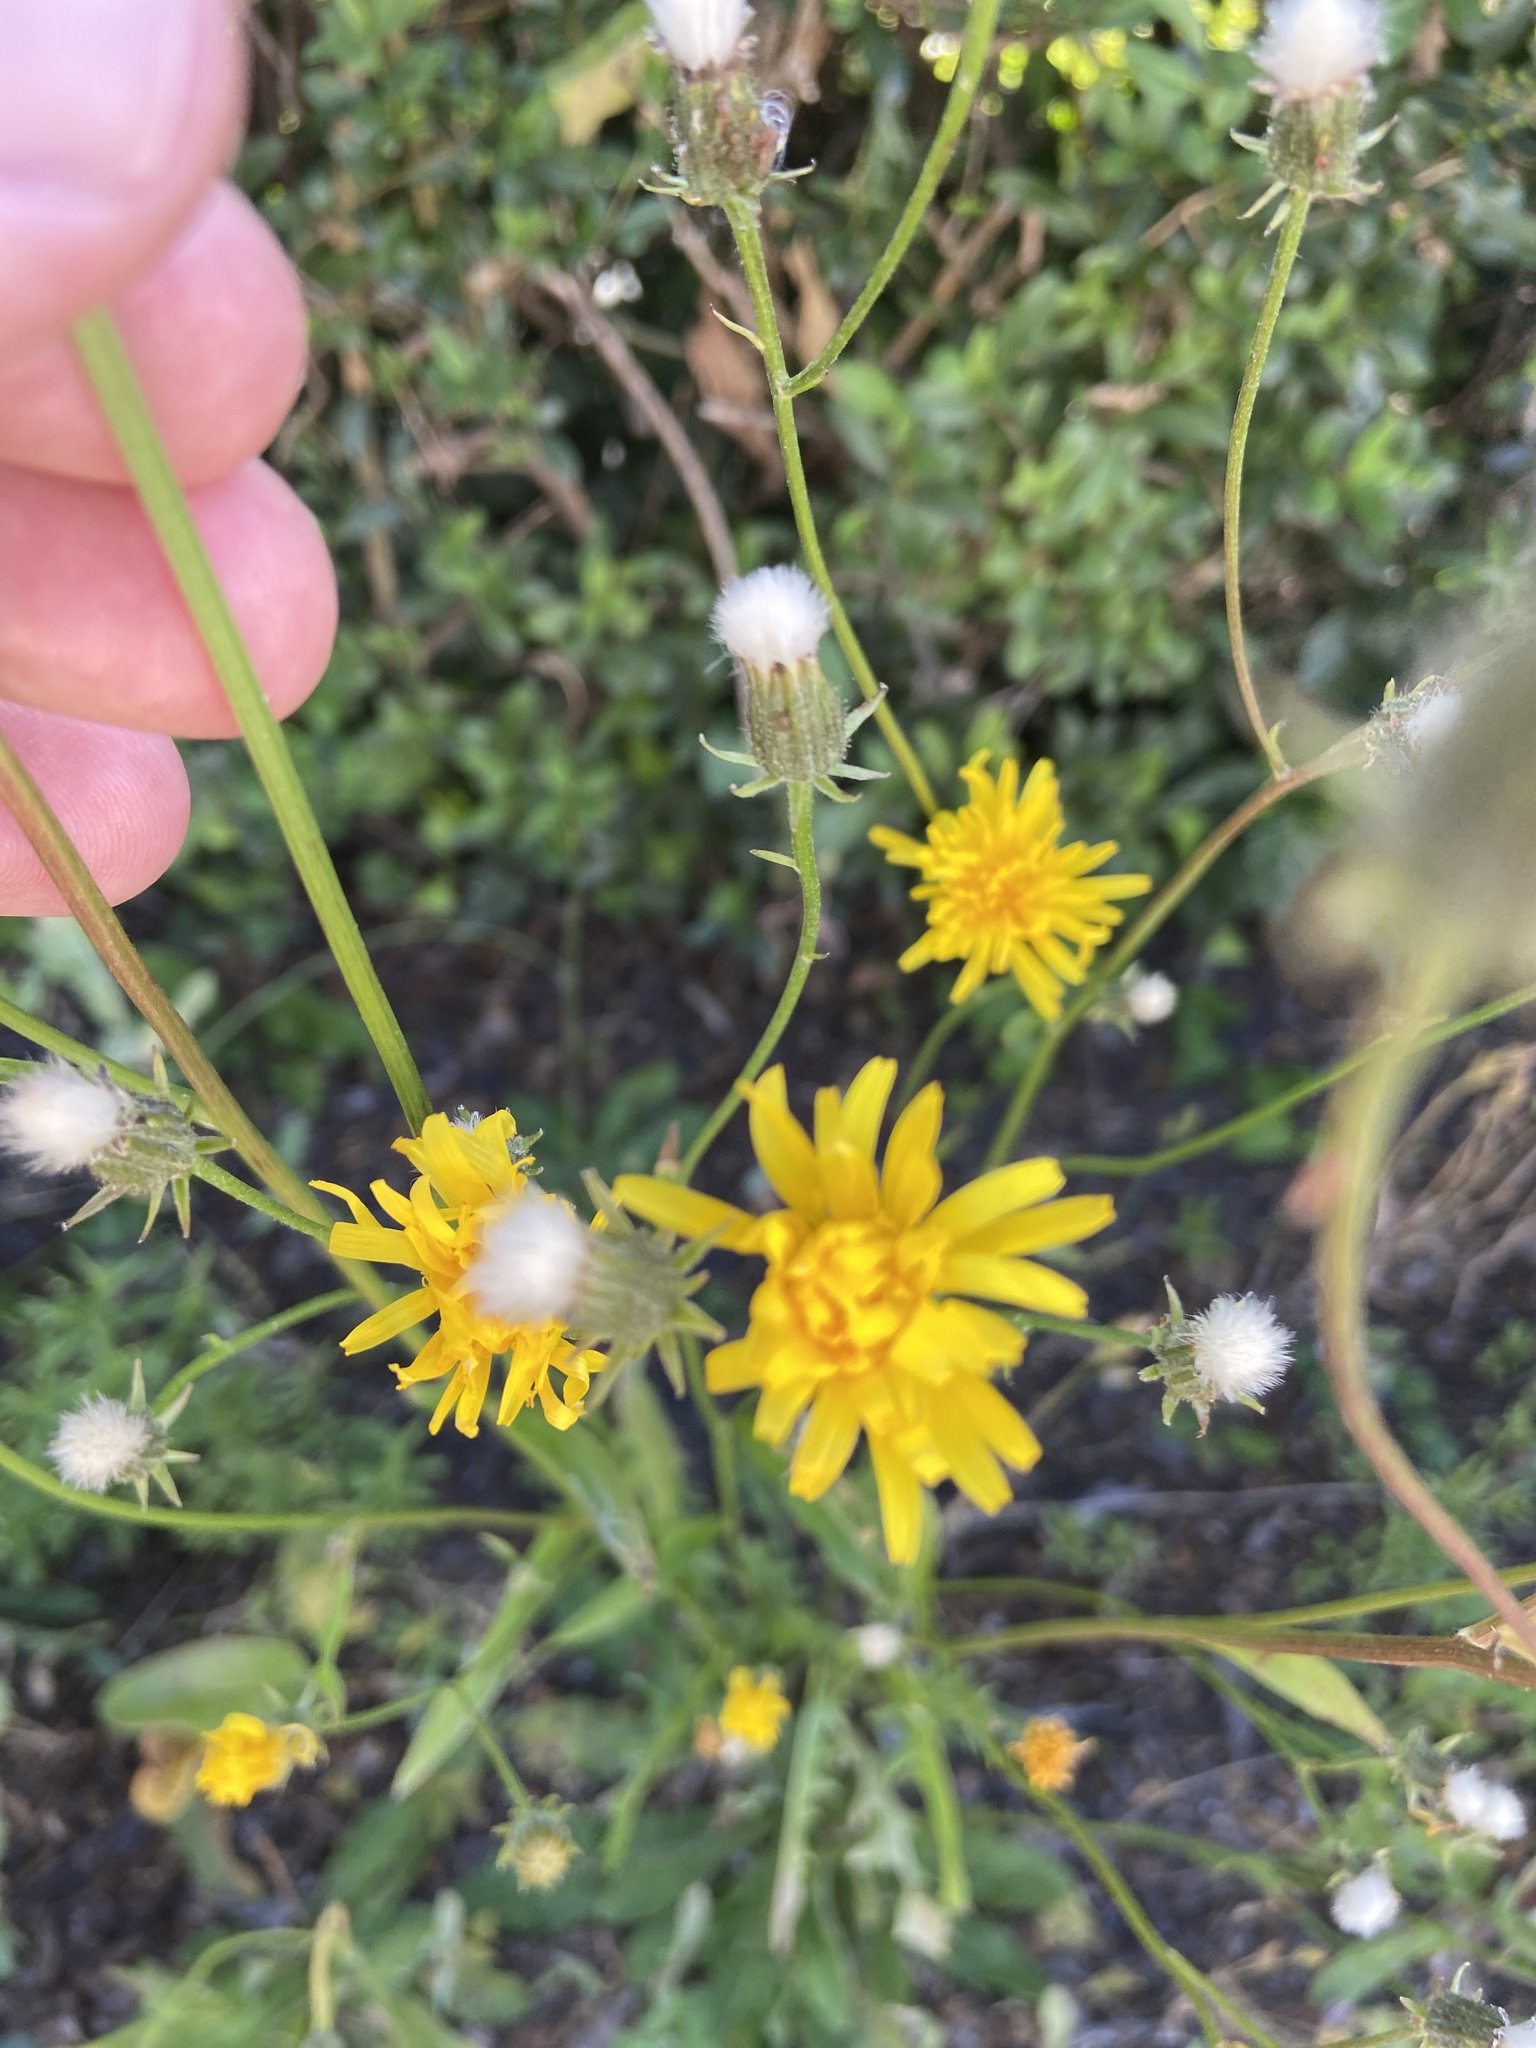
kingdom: Plantae
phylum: Tracheophyta
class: Magnoliopsida
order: Asterales
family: Asteraceae
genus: Crepis
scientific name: Crepis biennis
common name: Rough hawk's-beard
